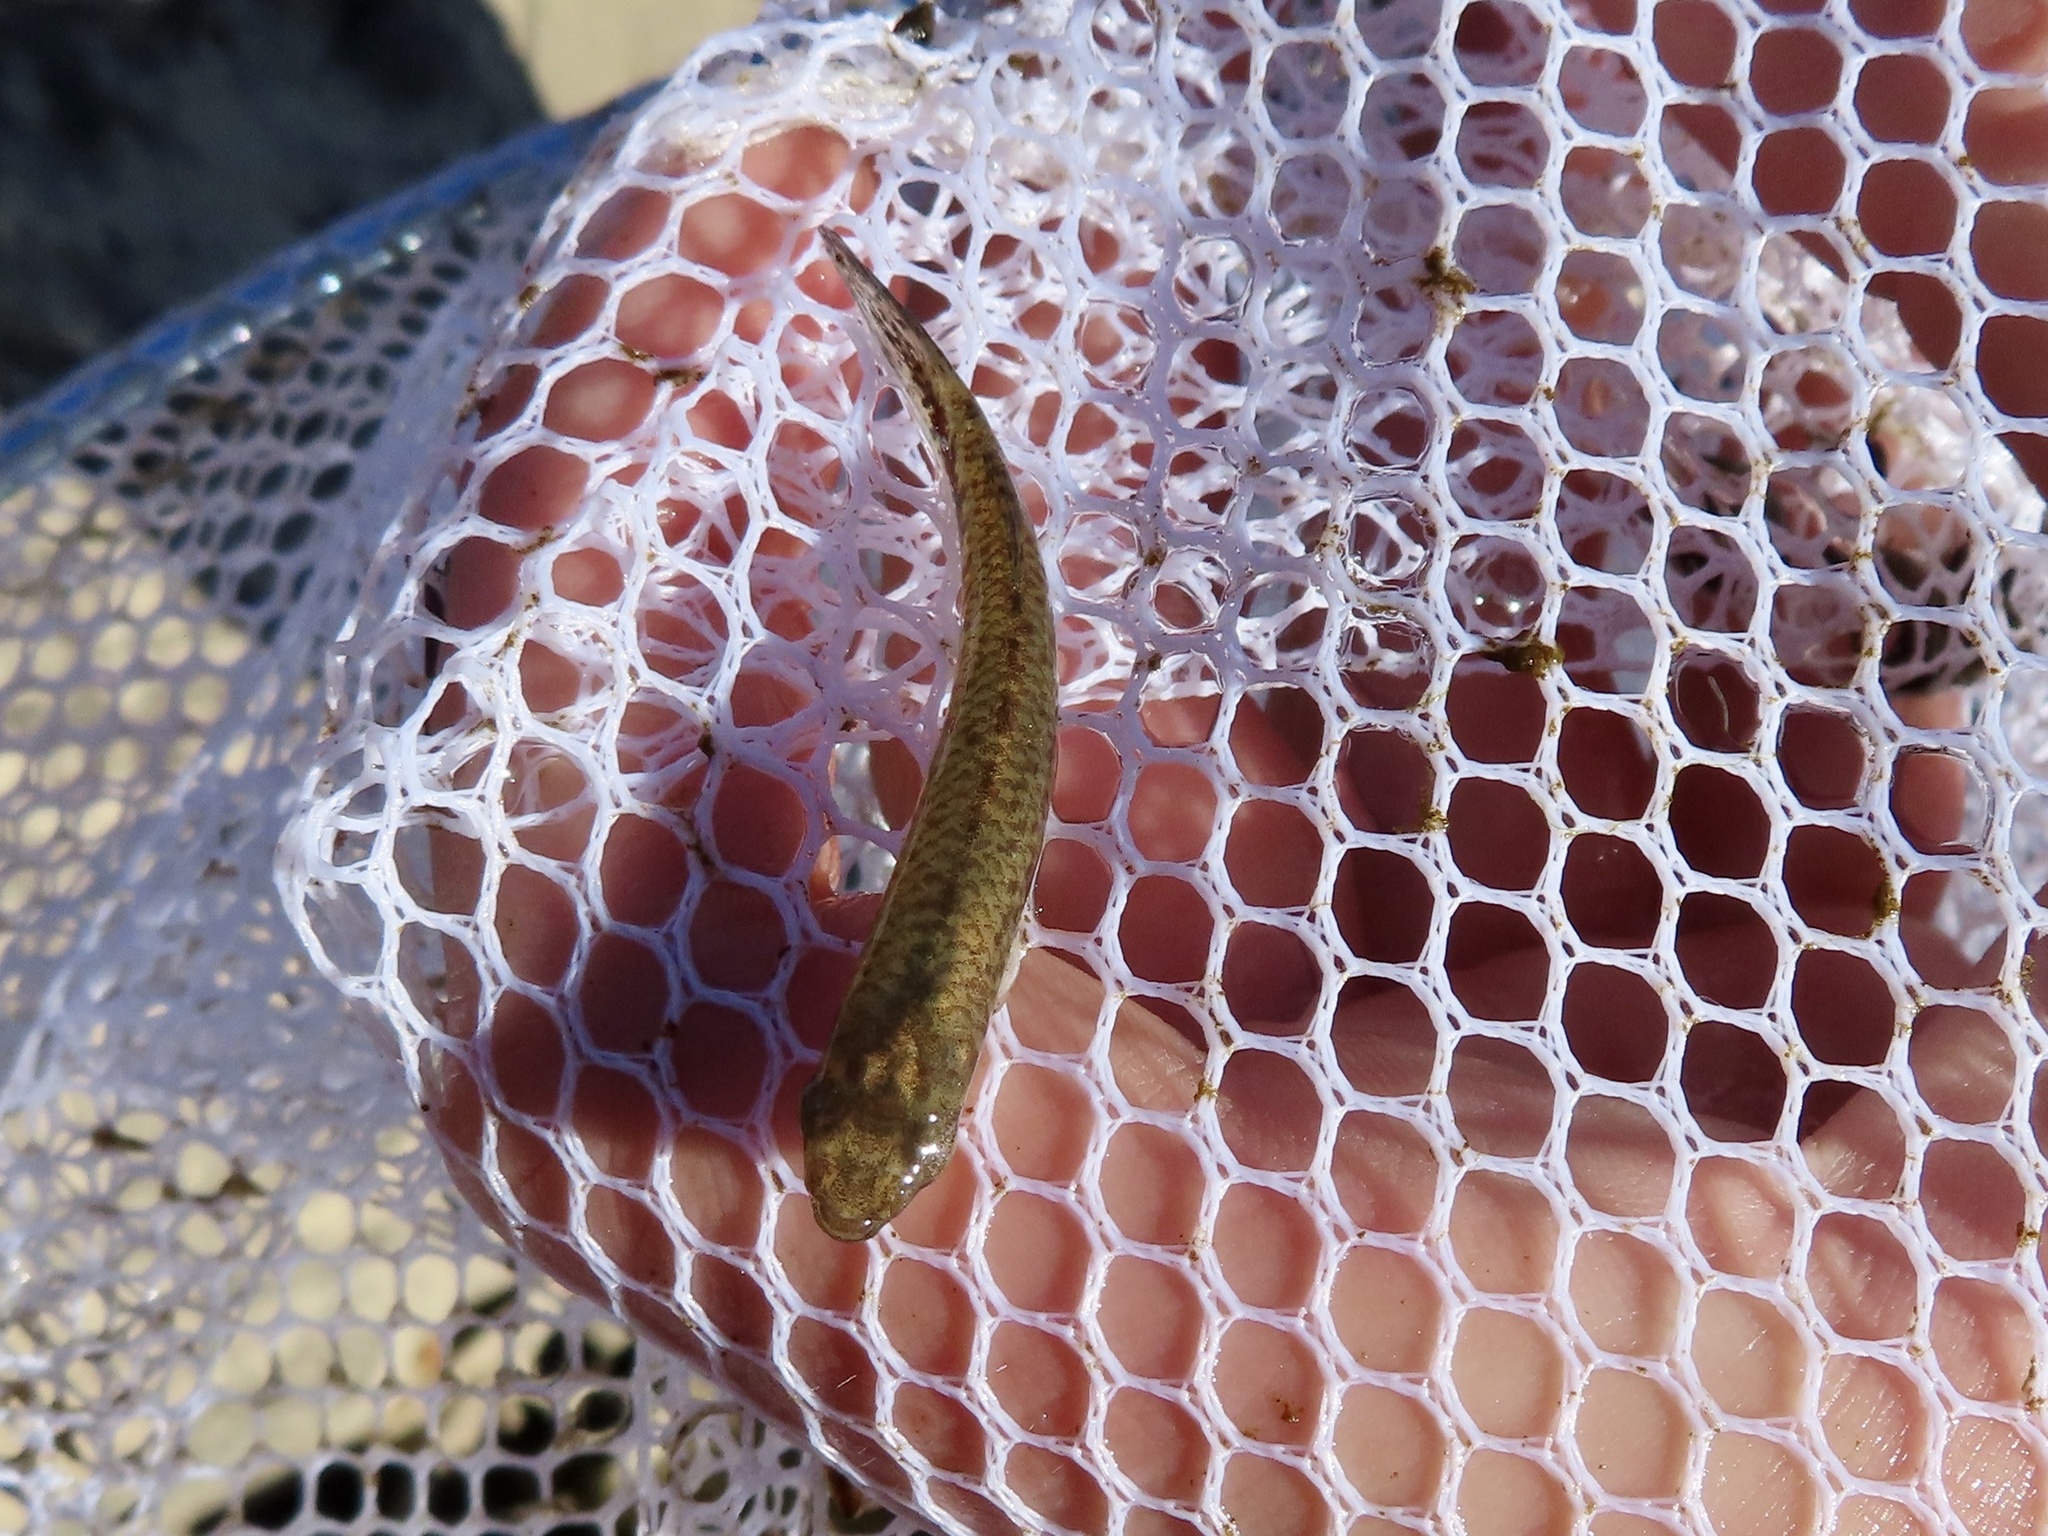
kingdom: Animalia
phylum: Chordata
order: Cyprinodontiformes
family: Fundulidae
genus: Fundulus
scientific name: Fundulus notatus
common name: Blackstripe topminnow
